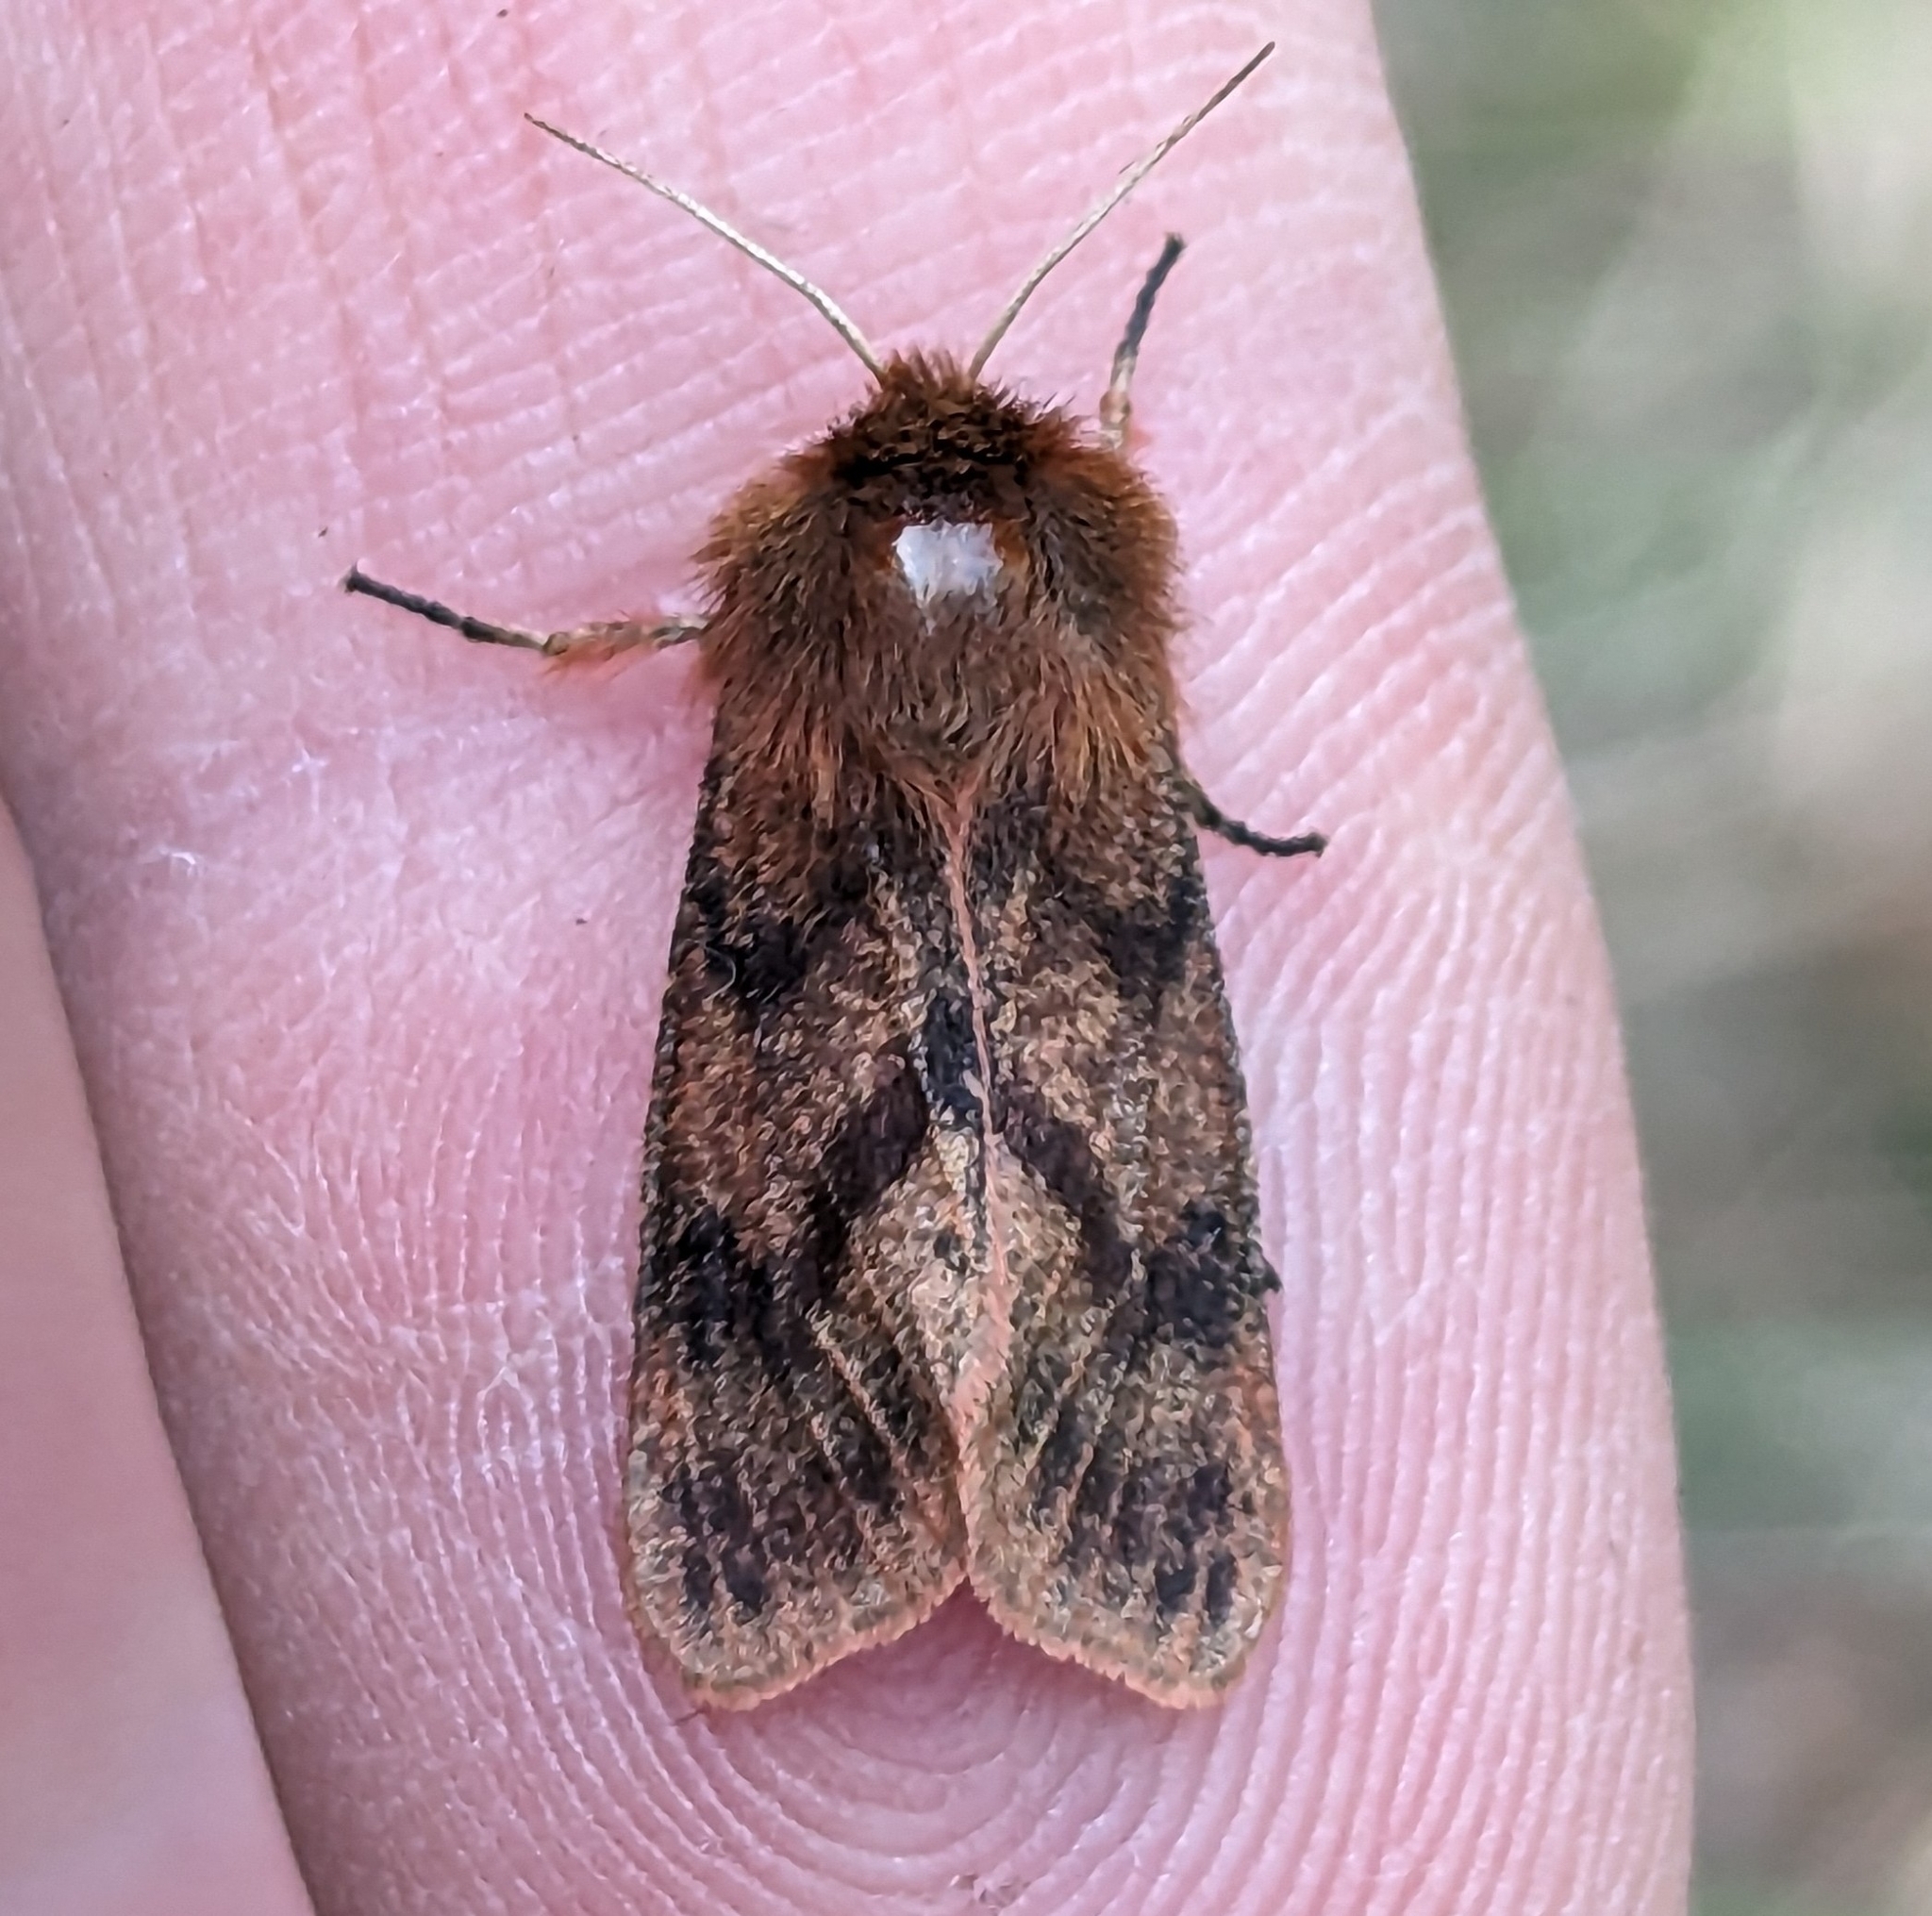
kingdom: Animalia
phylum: Arthropoda
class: Insecta
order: Lepidoptera
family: Erebidae
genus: Phragmatobia
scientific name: Phragmatobia assimilans
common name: Large ruby tiger moth
